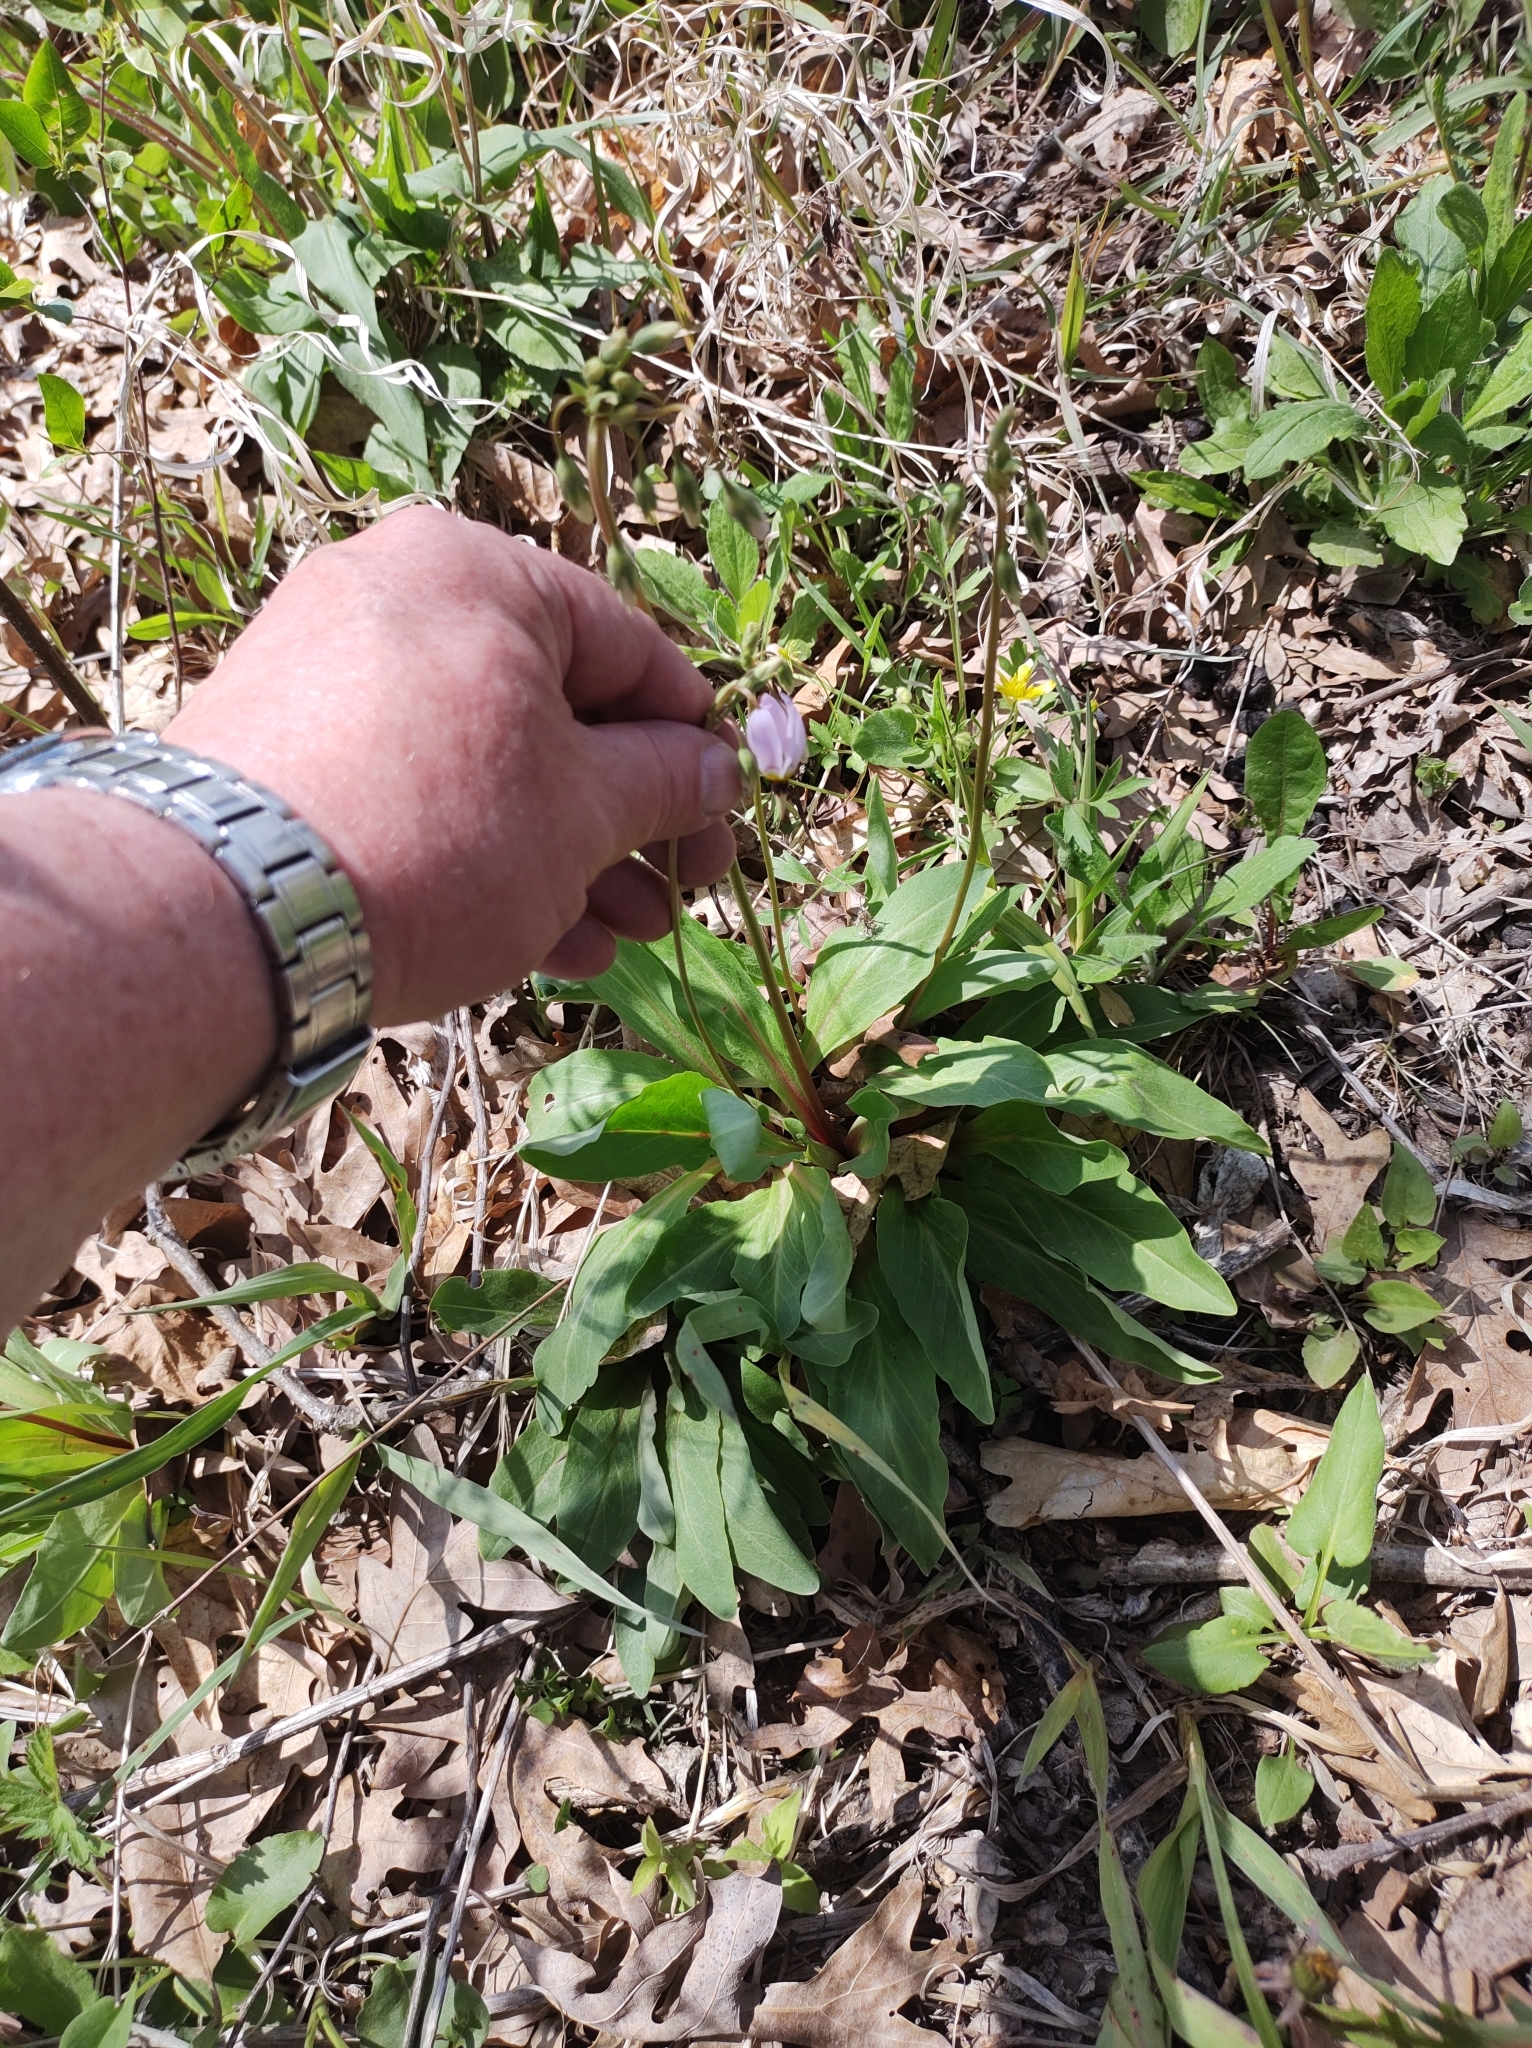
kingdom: Plantae
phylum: Tracheophyta
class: Magnoliopsida
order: Ericales
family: Primulaceae
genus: Dodecatheon
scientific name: Dodecatheon meadia
